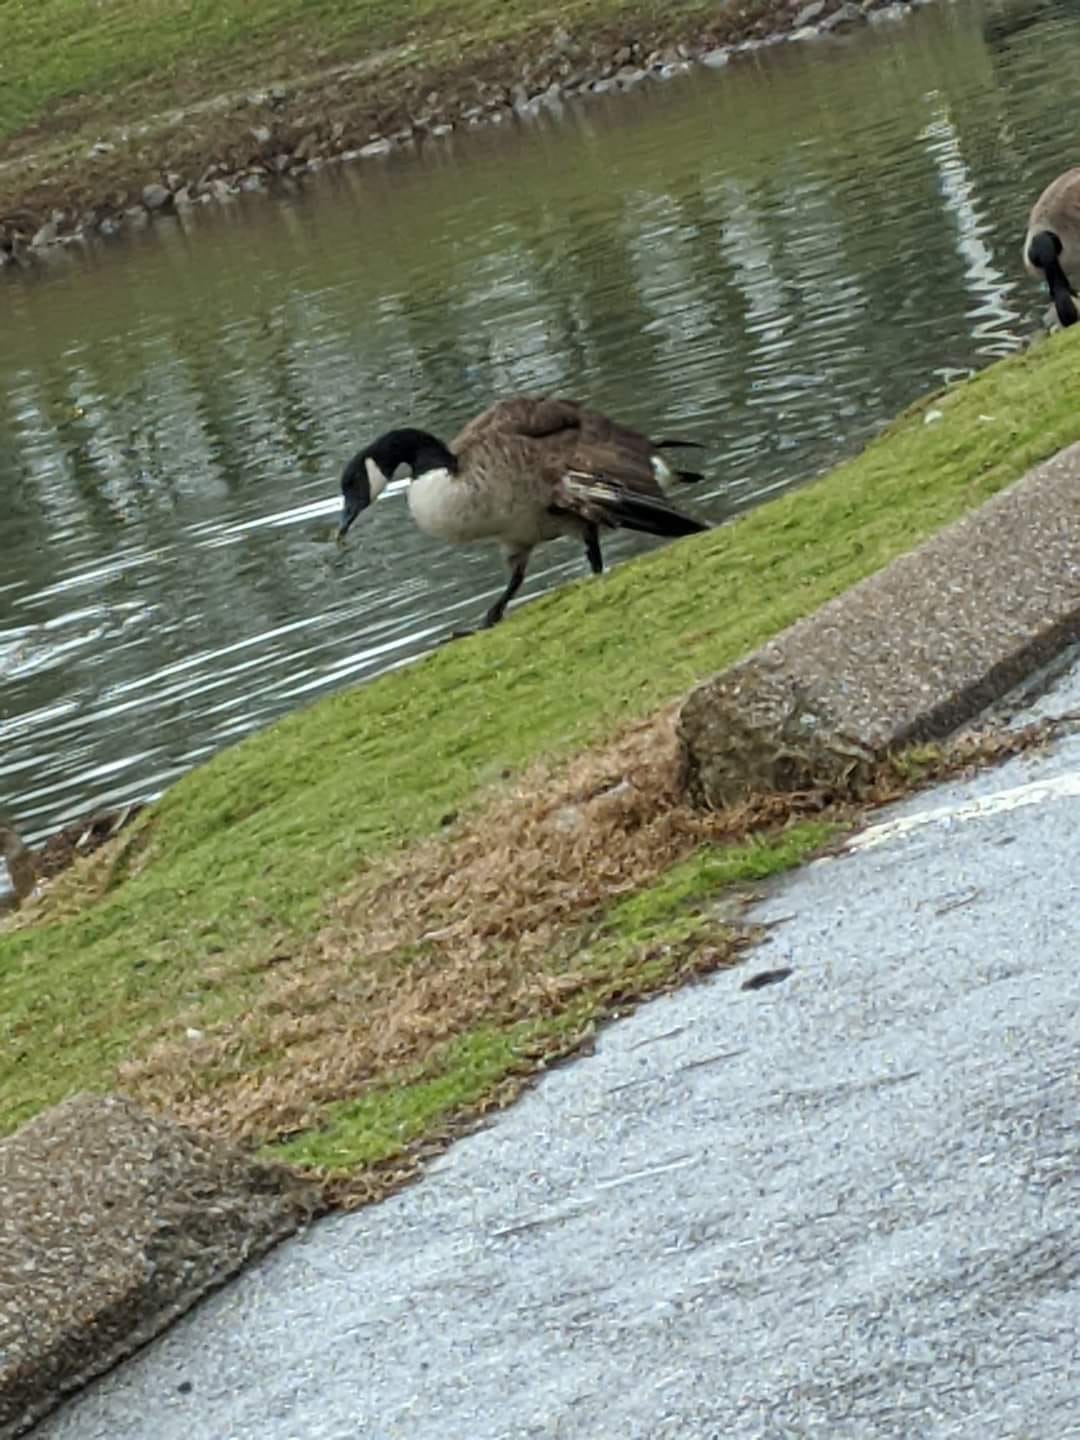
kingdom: Animalia
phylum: Chordata
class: Aves
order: Anseriformes
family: Anatidae
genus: Branta
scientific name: Branta canadensis
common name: Canada goose
